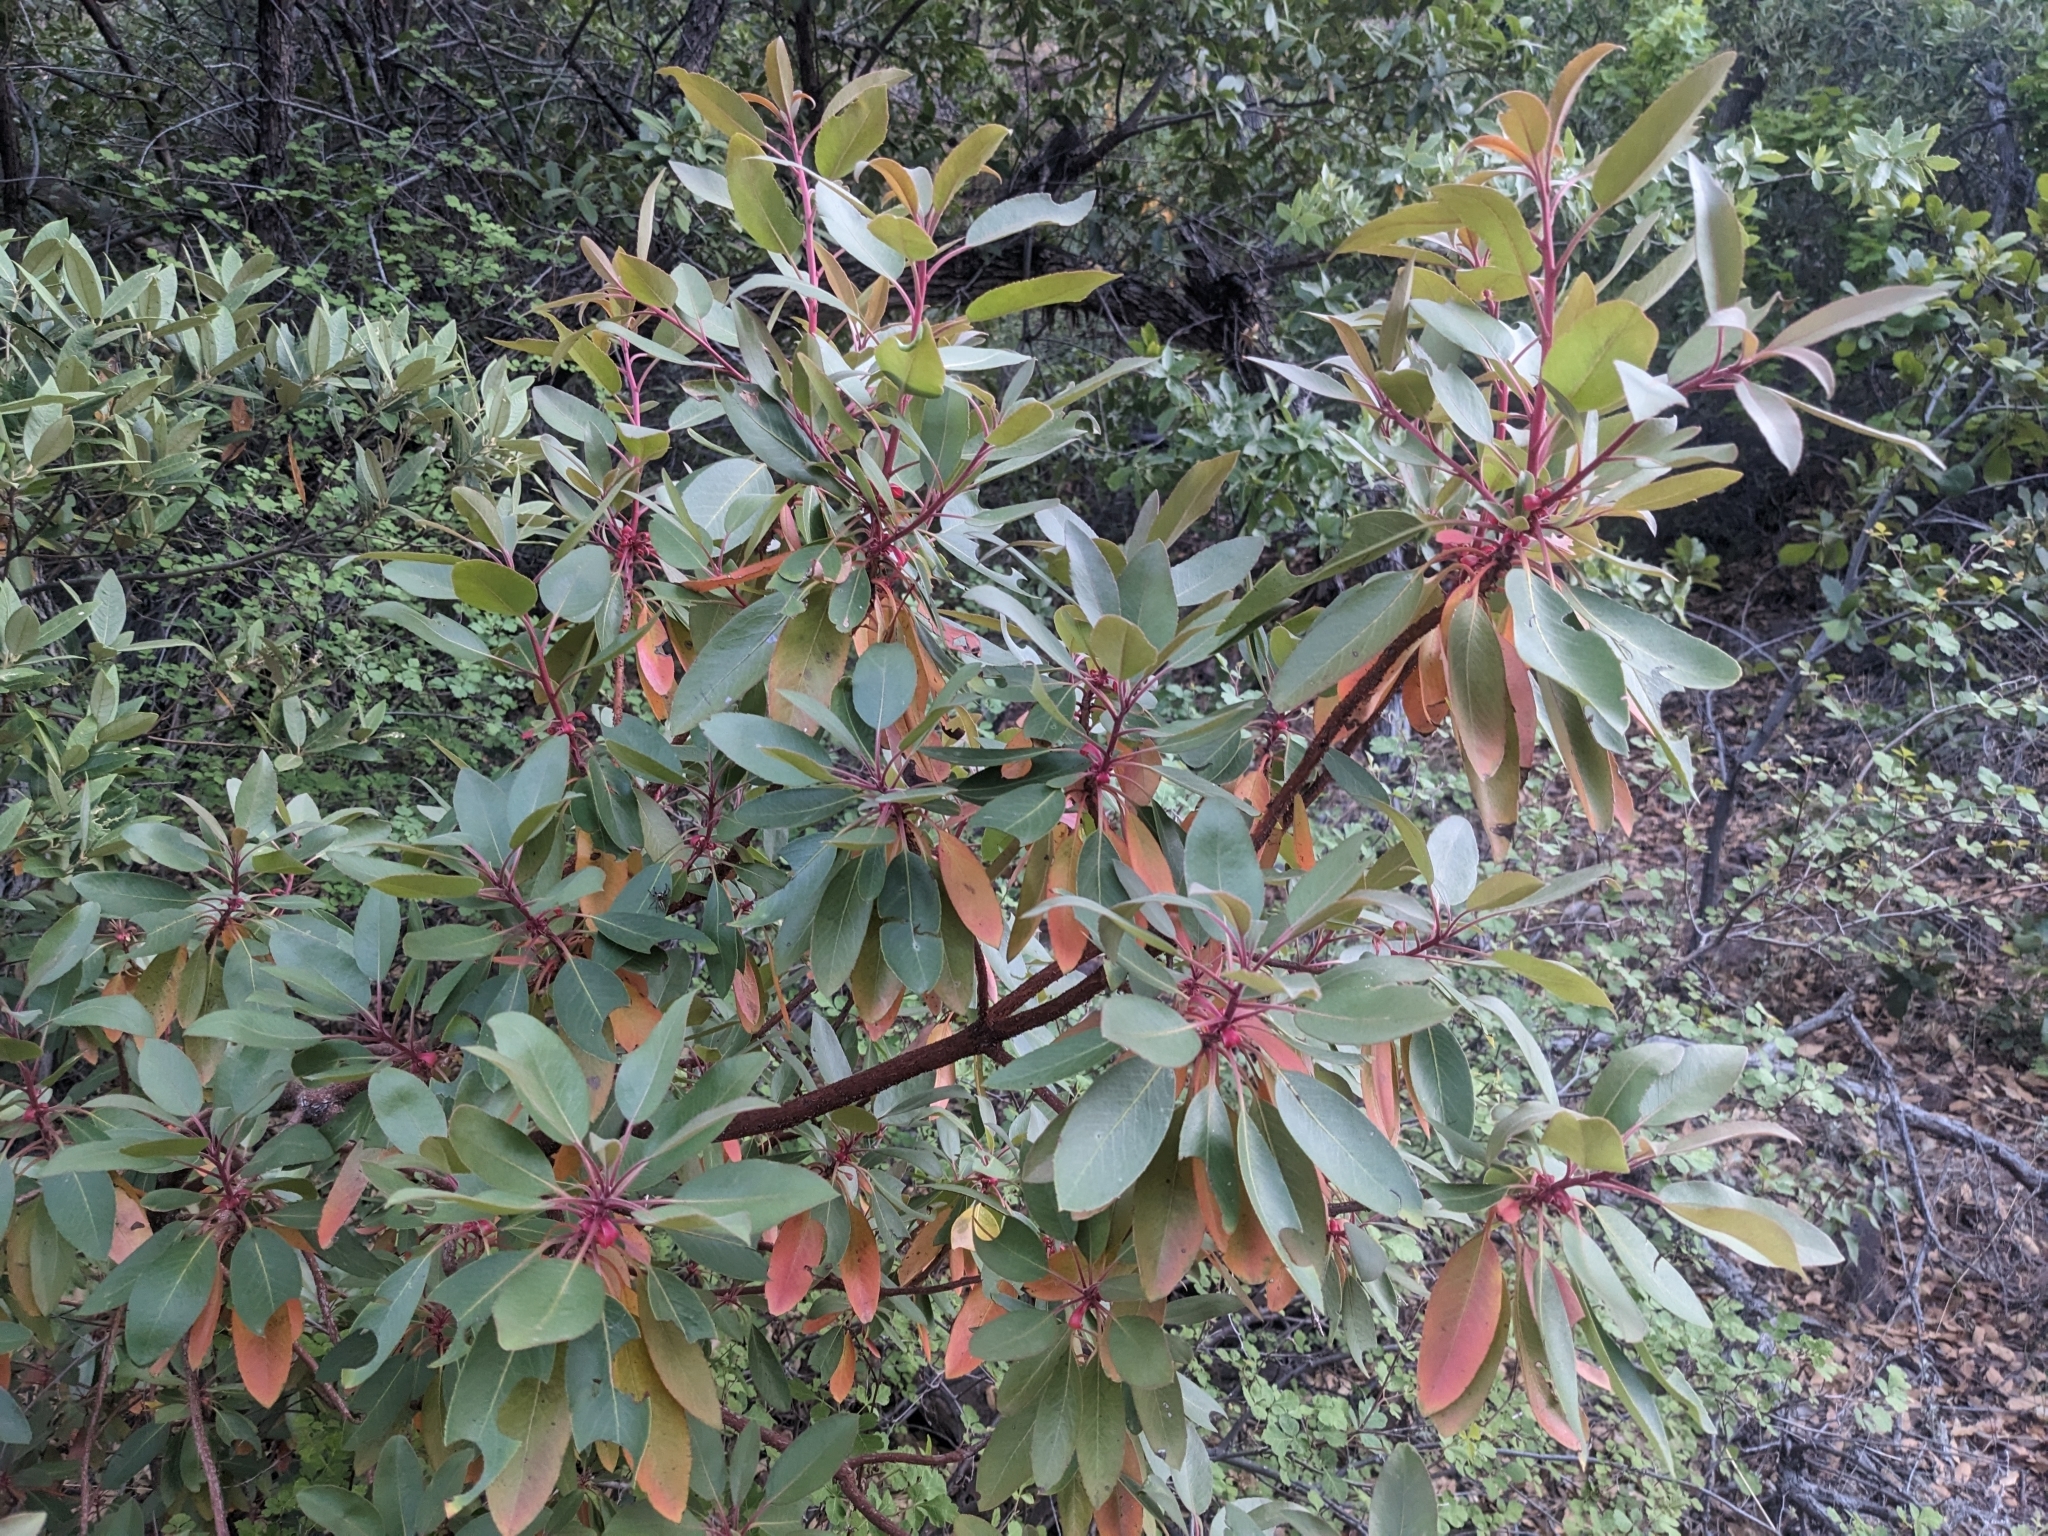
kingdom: Plantae
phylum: Tracheophyta
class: Magnoliopsida
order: Ericales
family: Ericaceae
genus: Arbutus
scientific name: Arbutus arizonica
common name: Arizona madrone
